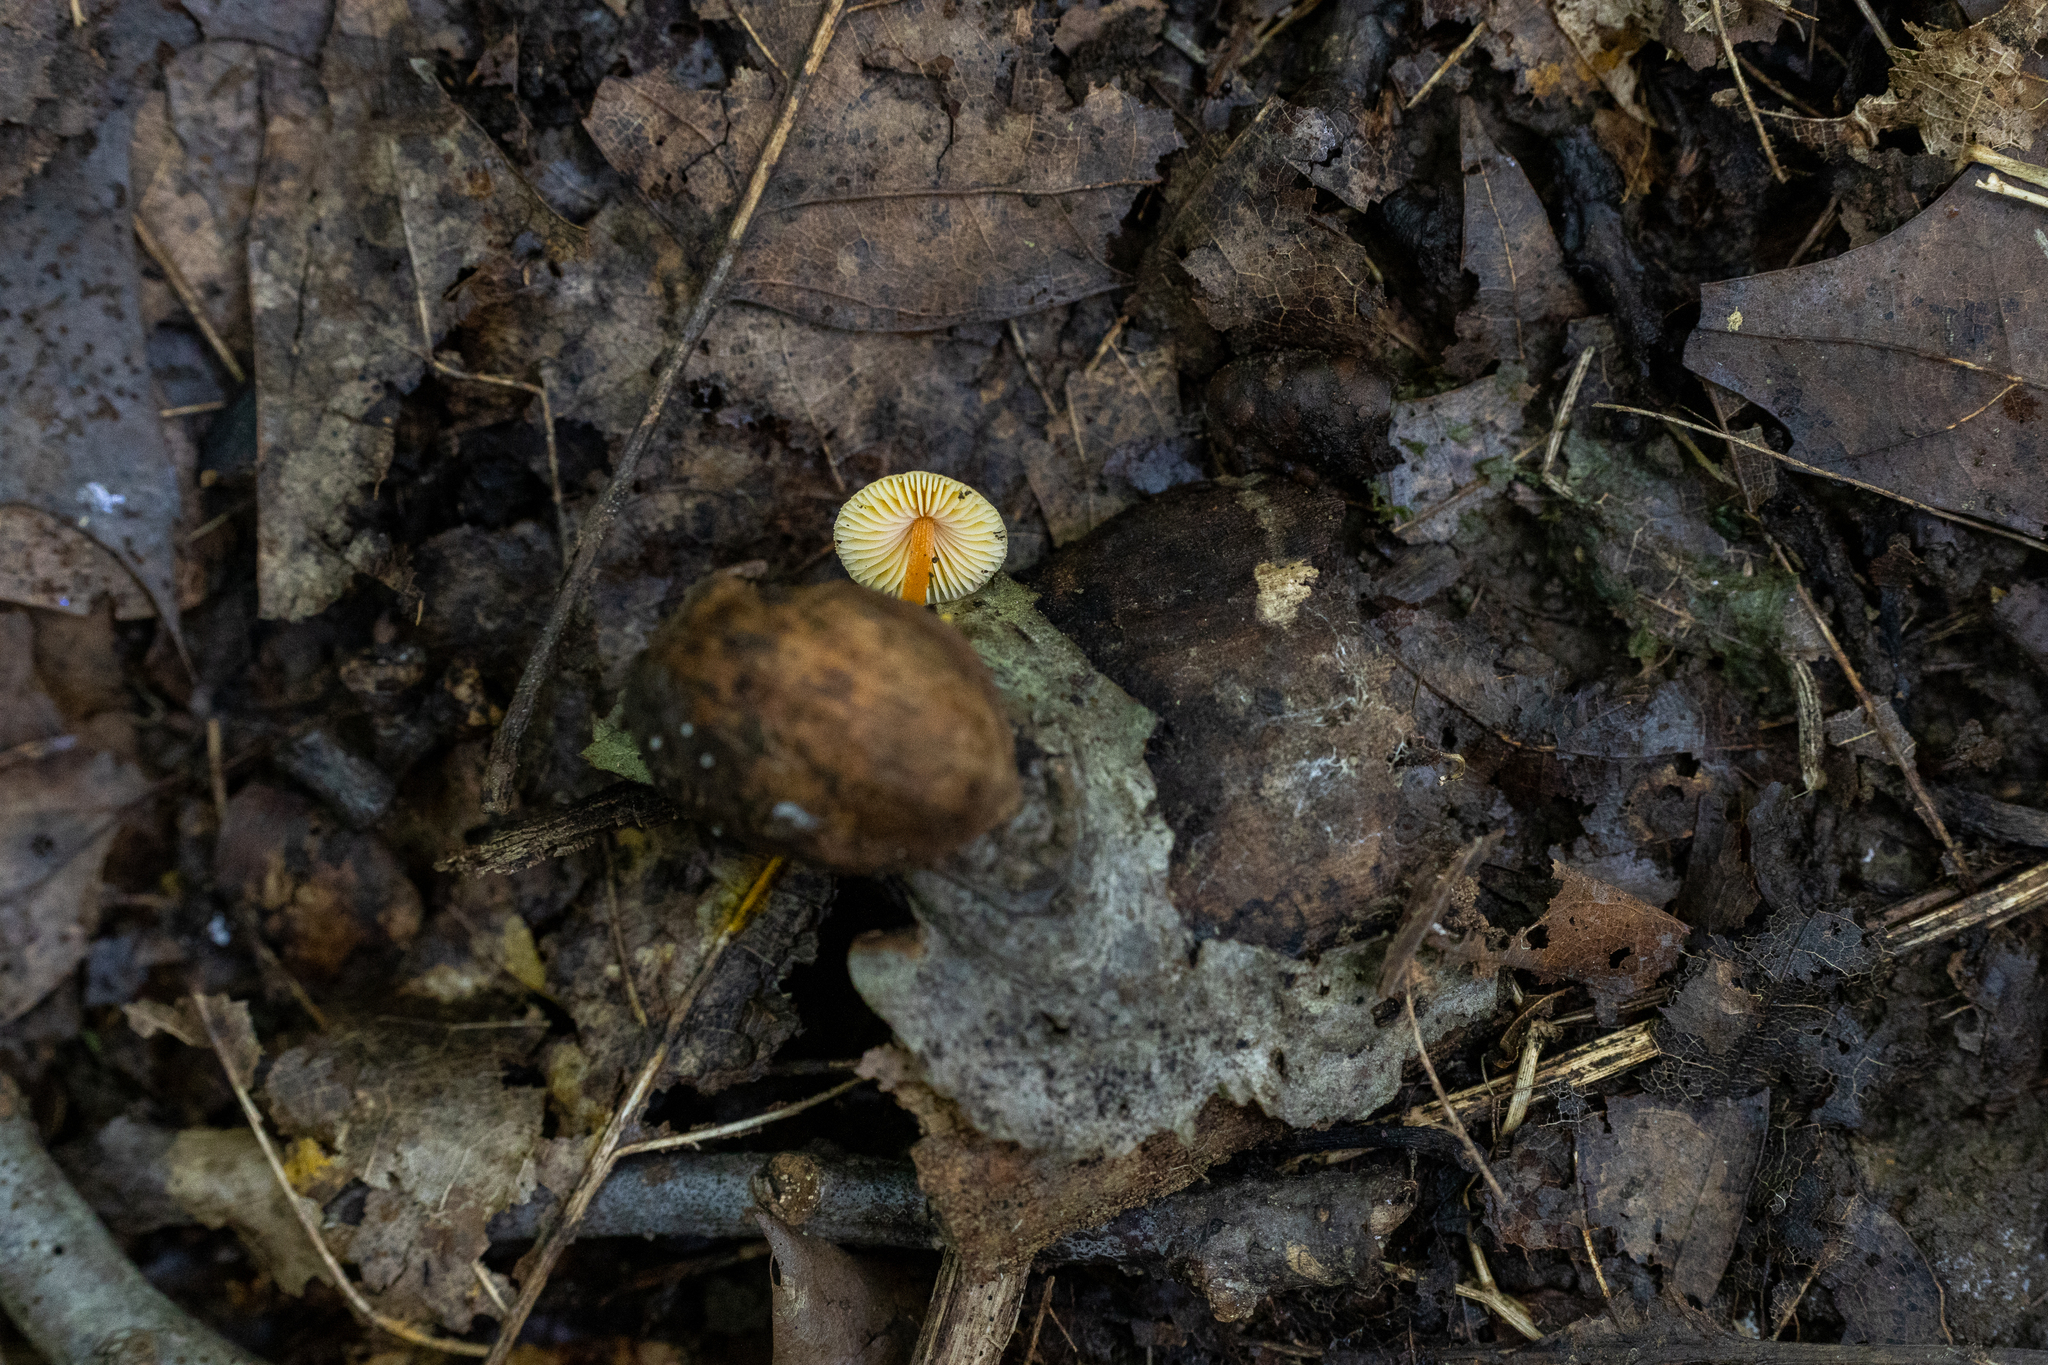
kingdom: Fungi
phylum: Basidiomycota
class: Agaricomycetes
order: Agaricales
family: Mycenaceae
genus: Mycena
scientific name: Mycena crocea
